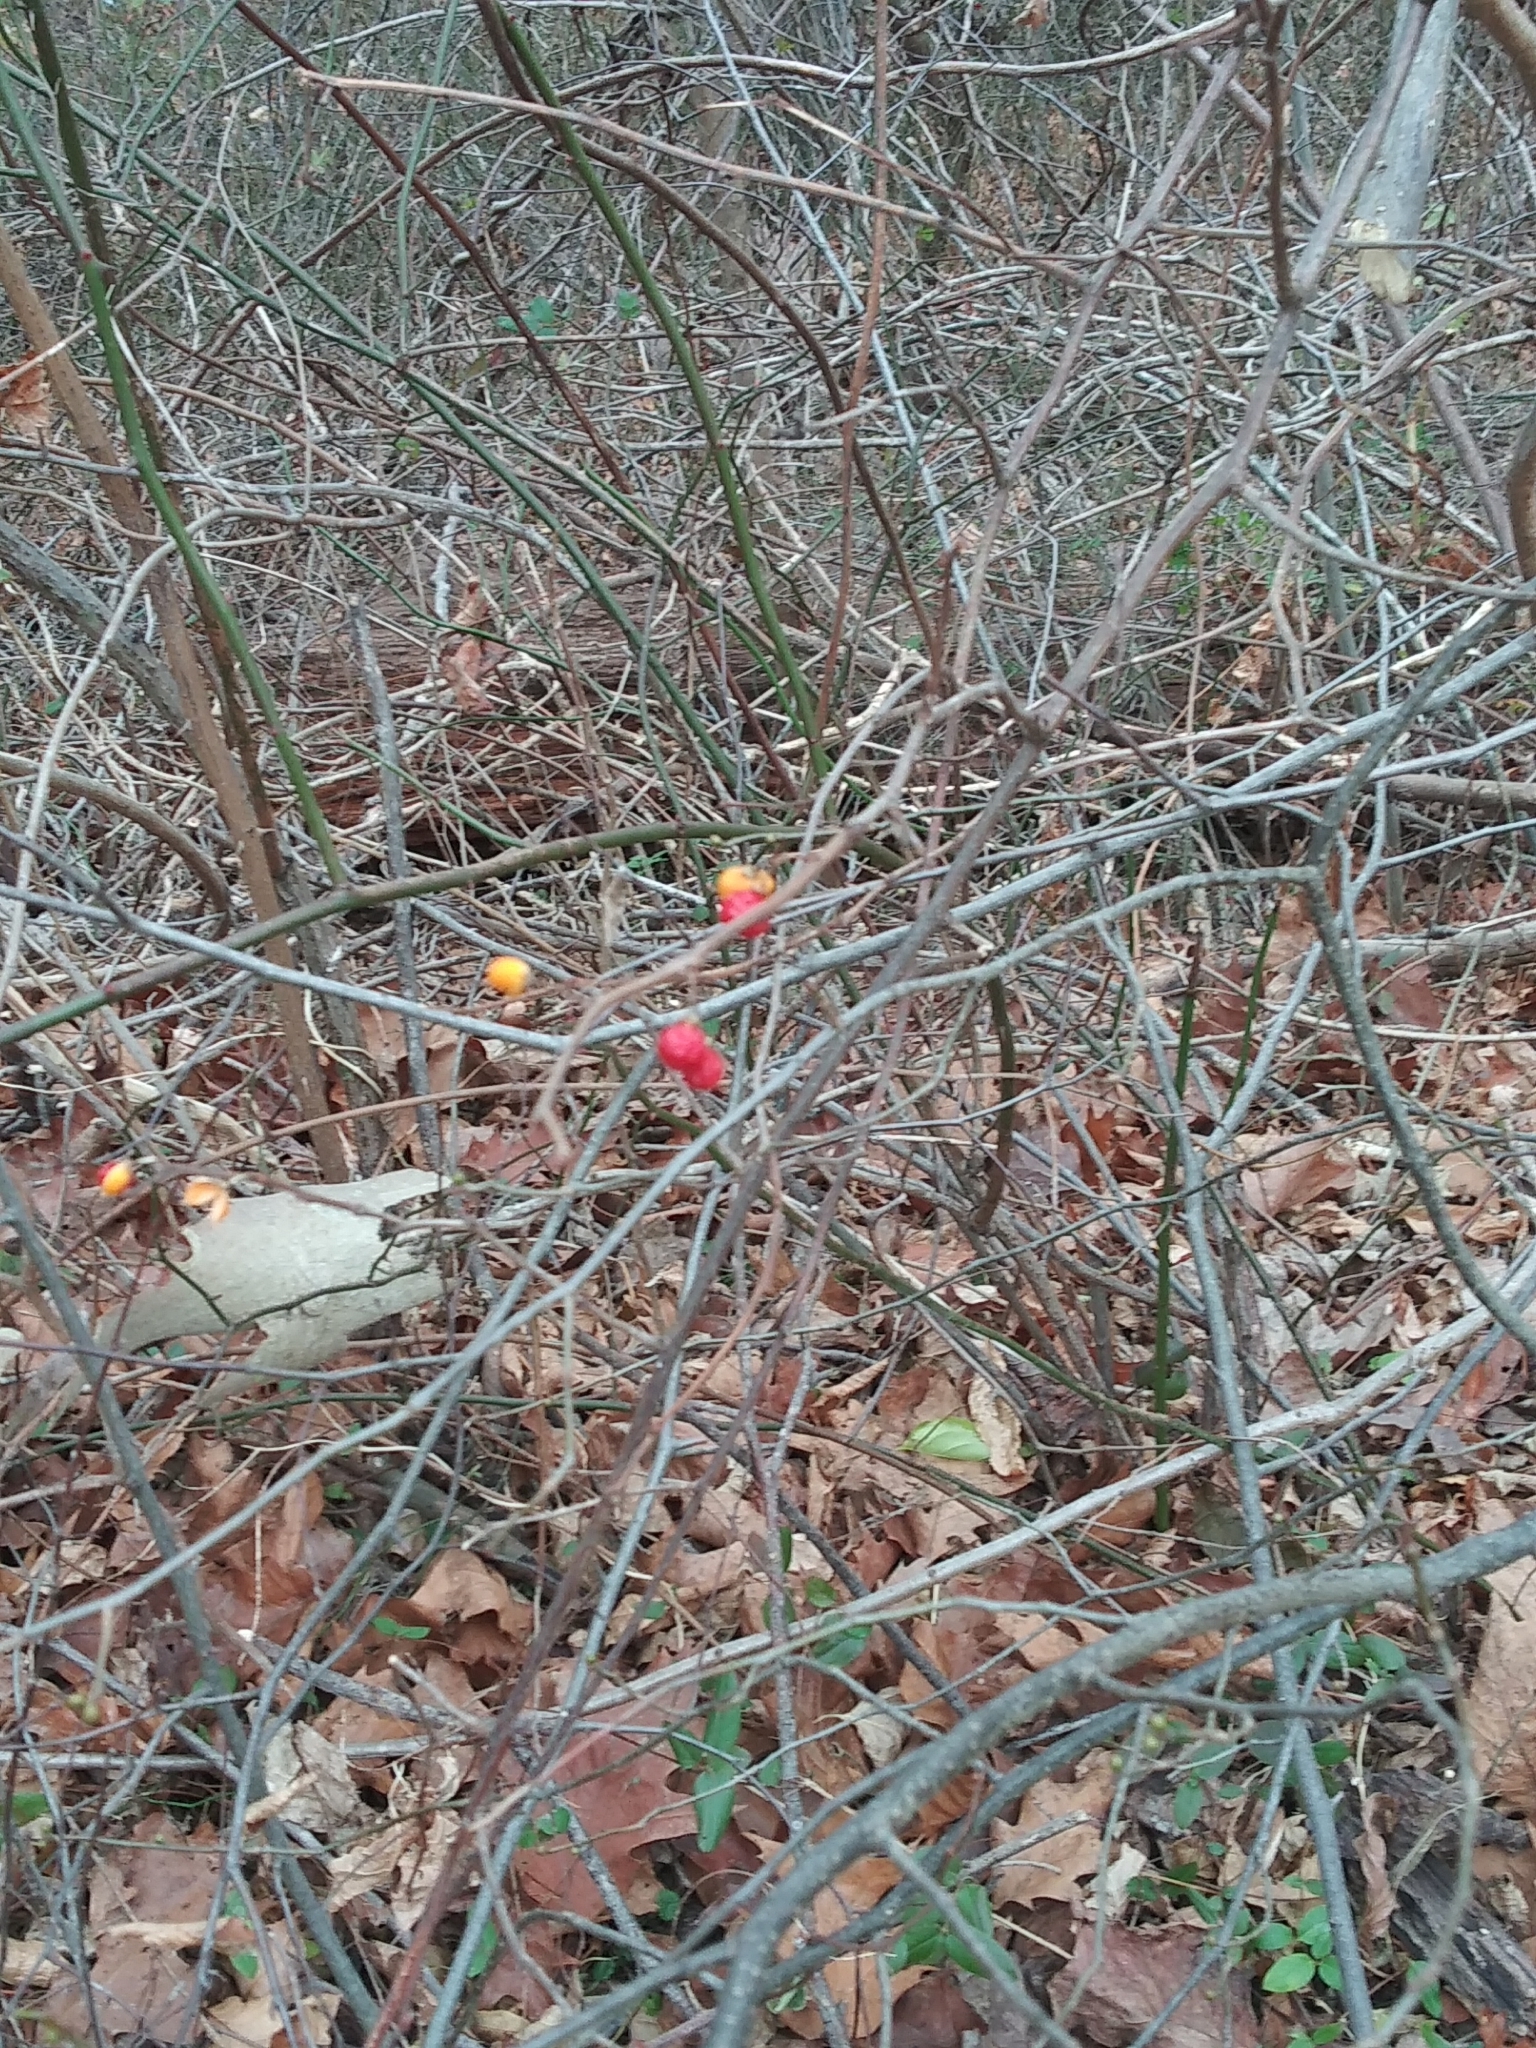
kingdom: Plantae
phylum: Tracheophyta
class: Magnoliopsida
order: Celastrales
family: Celastraceae
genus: Celastrus
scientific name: Celastrus orbiculatus
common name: Oriental bittersweet
